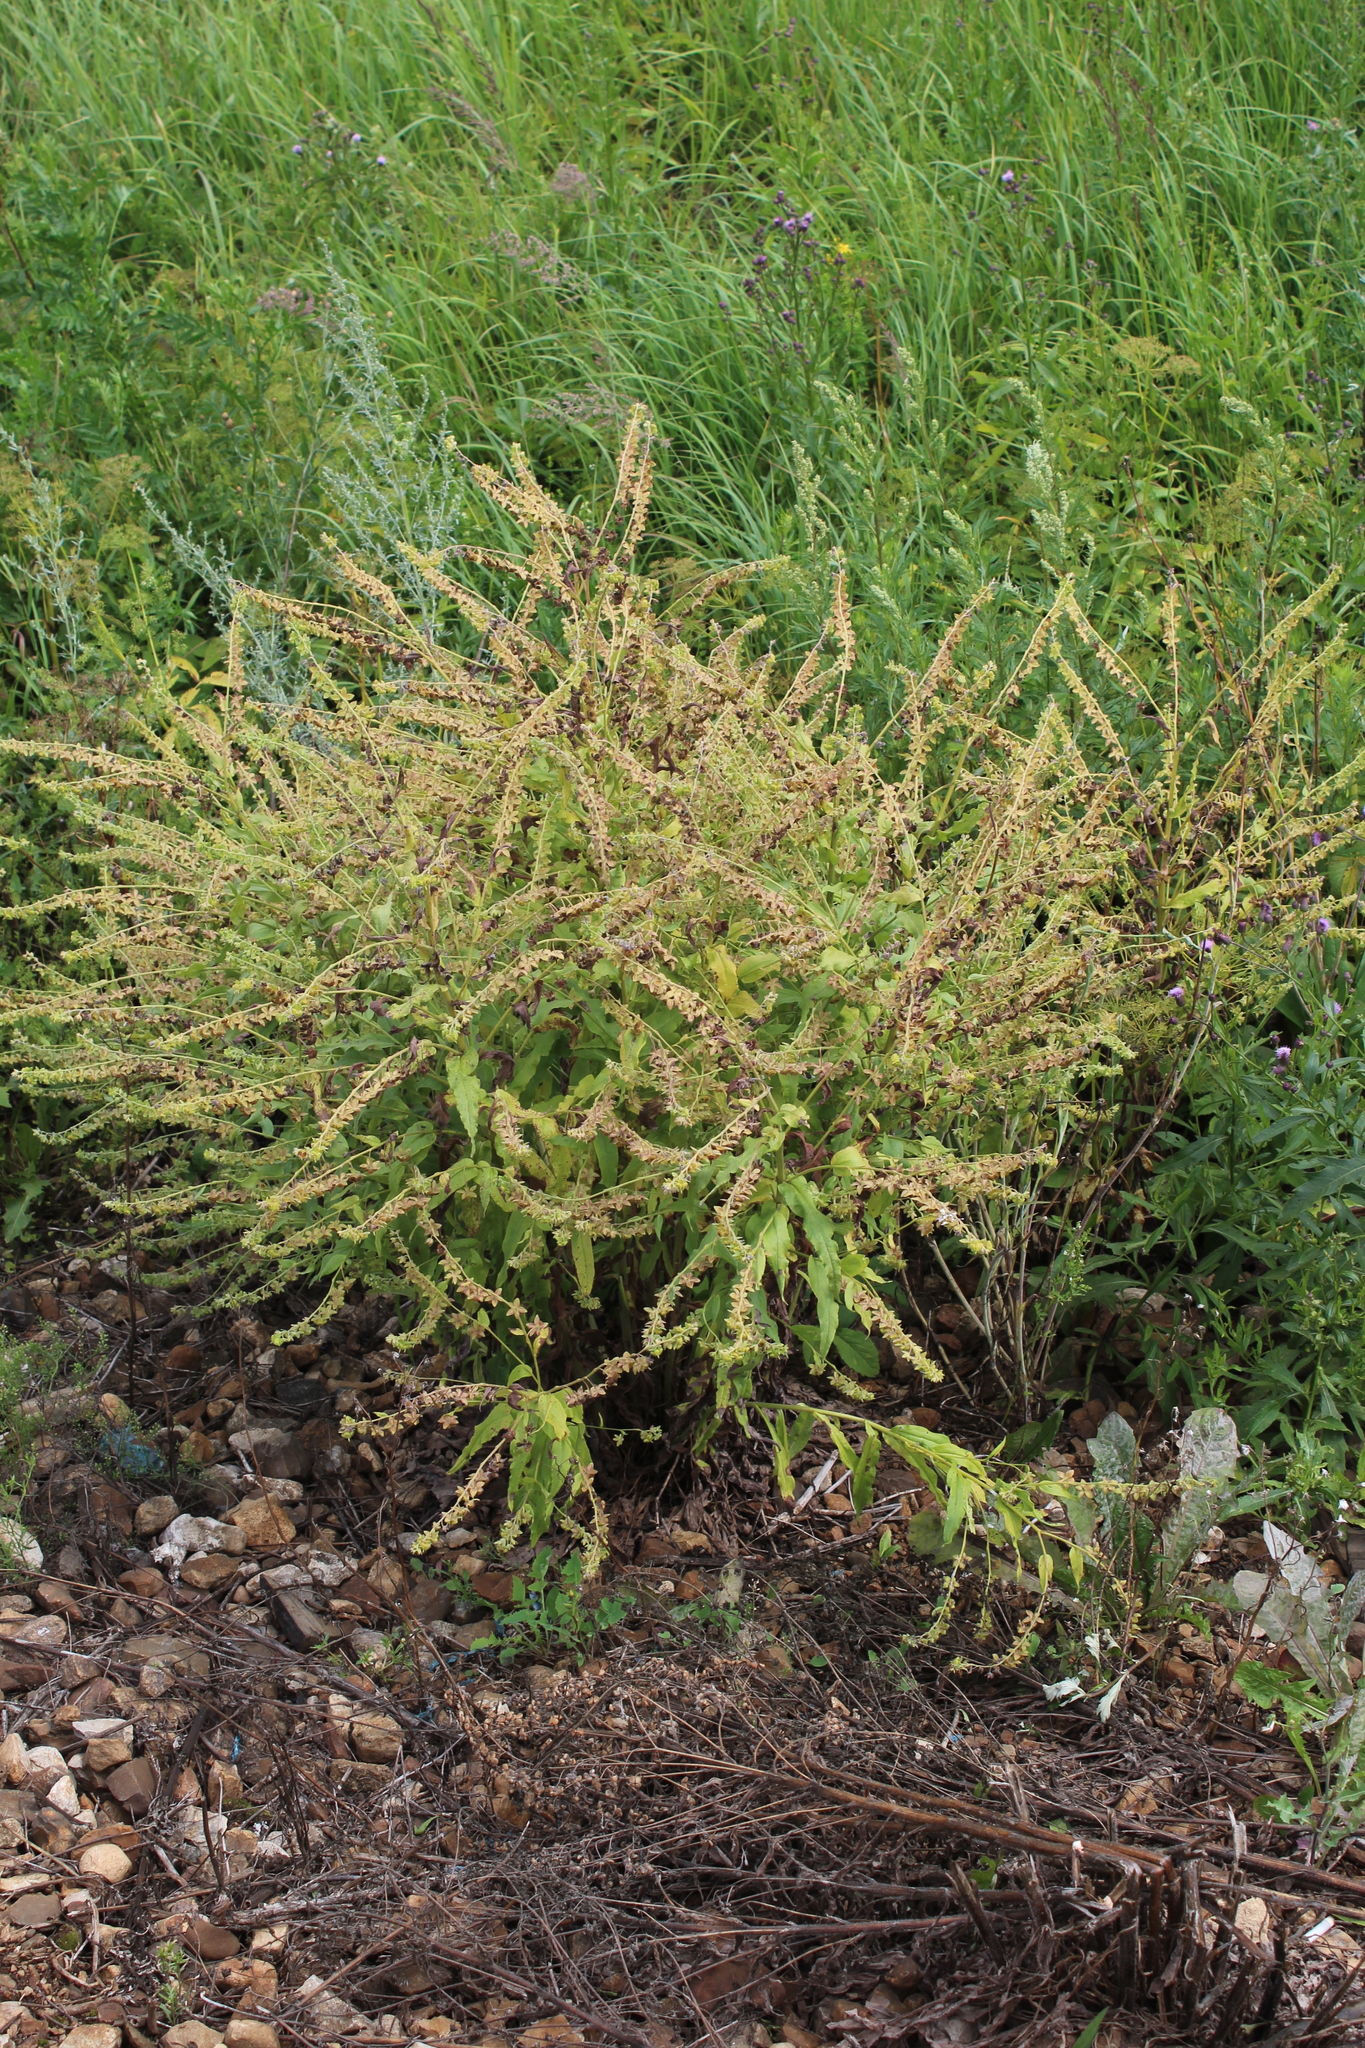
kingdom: Plantae
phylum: Tracheophyta
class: Magnoliopsida
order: Boraginales
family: Boraginaceae
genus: Cynoglossum
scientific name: Cynoglossum officinale
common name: Hound's-tongue
